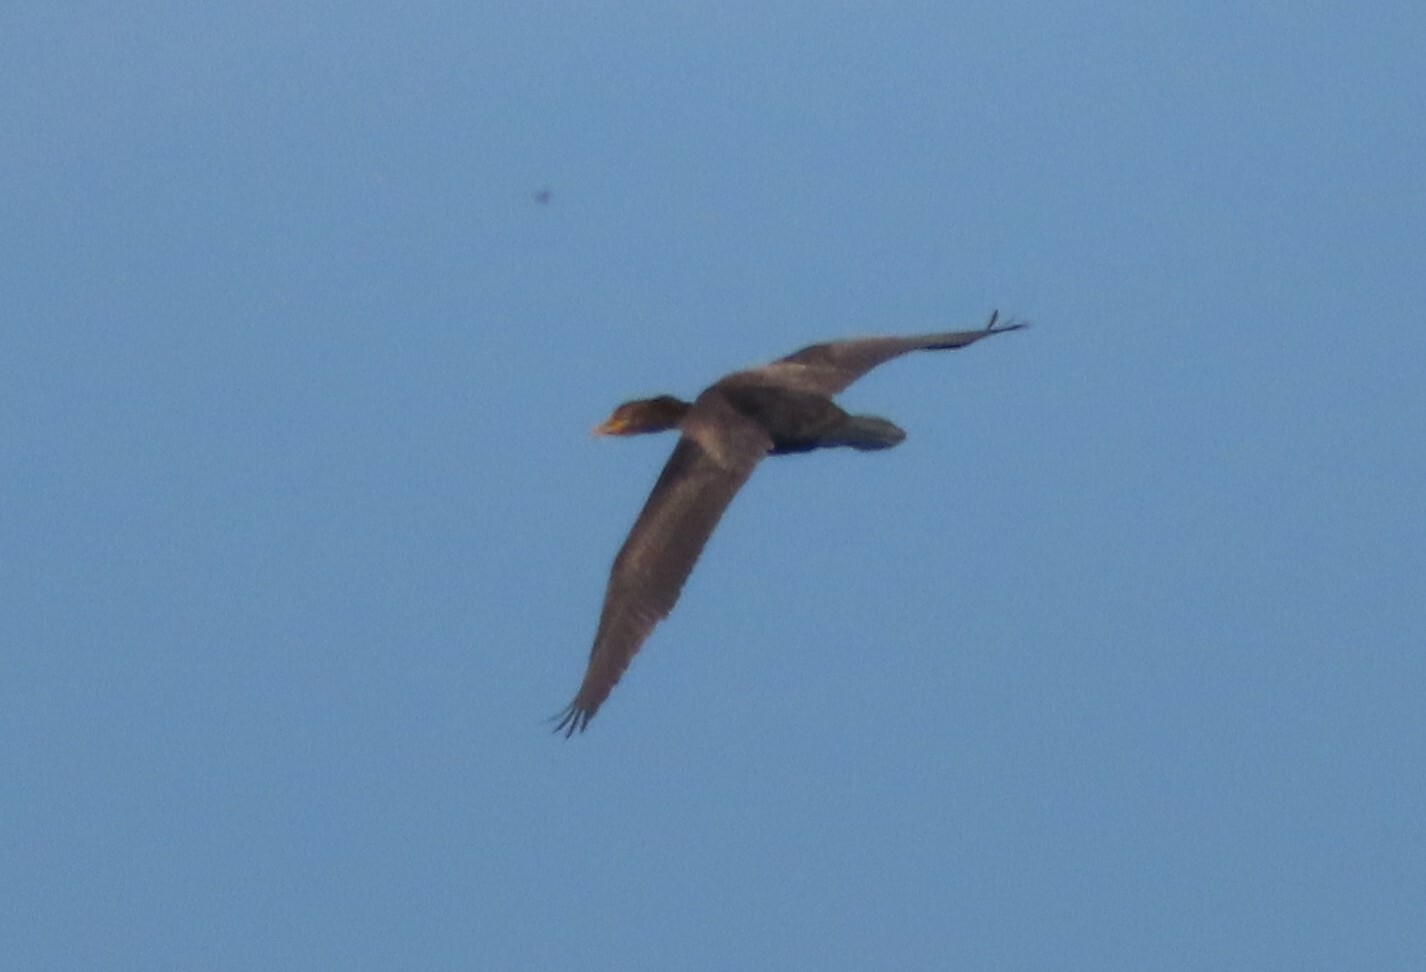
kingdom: Animalia
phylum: Chordata
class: Aves
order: Suliformes
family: Phalacrocoracidae
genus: Phalacrocorax
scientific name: Phalacrocorax auritus
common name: Double-crested cormorant
